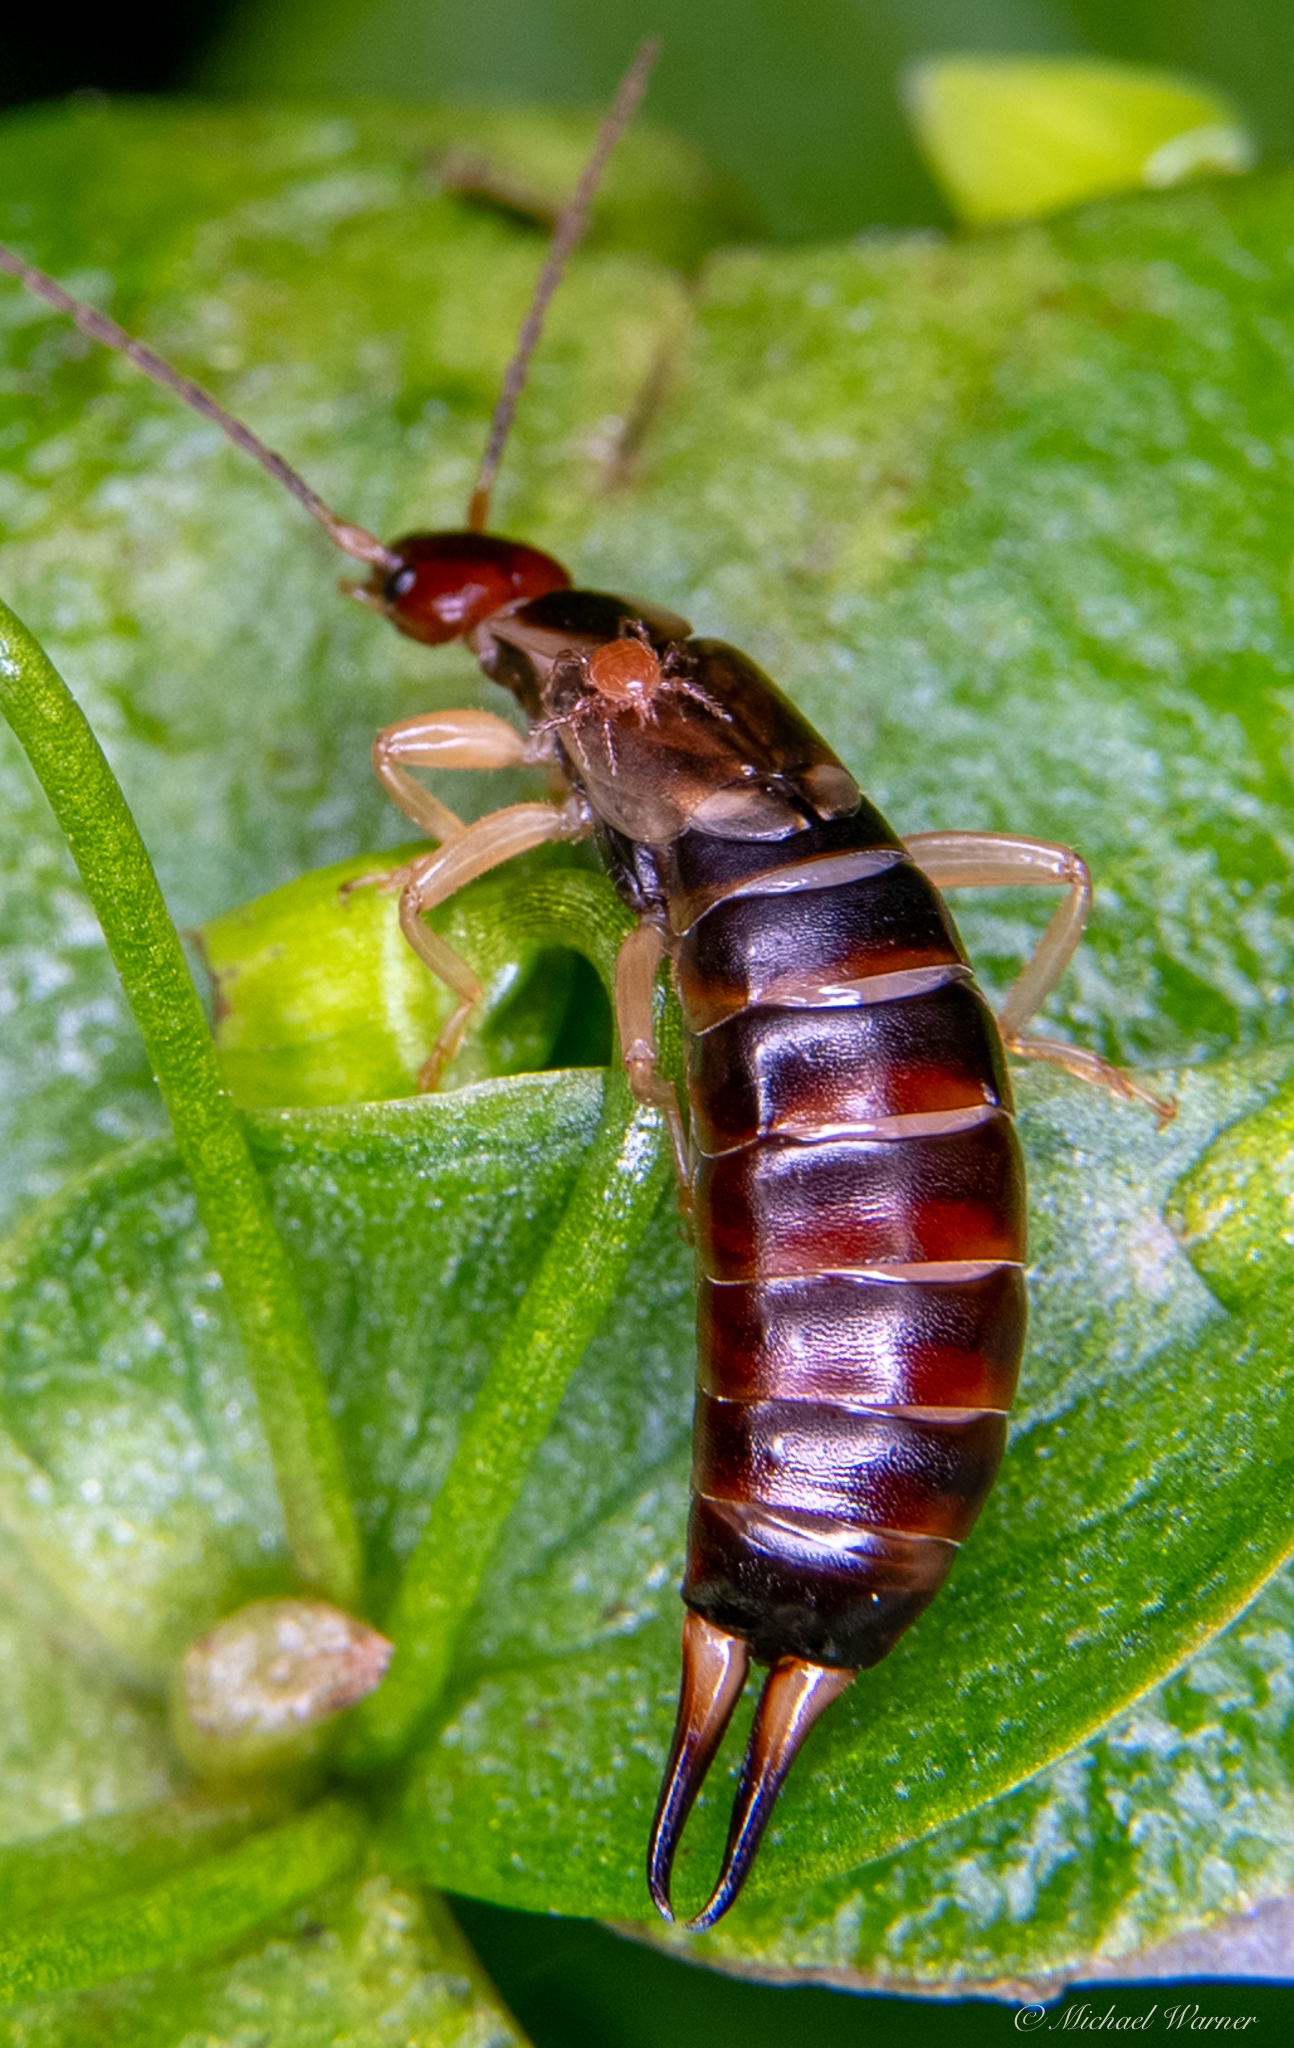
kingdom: Animalia
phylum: Arthropoda
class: Insecta
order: Dermaptera
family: Forficulidae
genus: Forficula
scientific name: Forficula dentata
